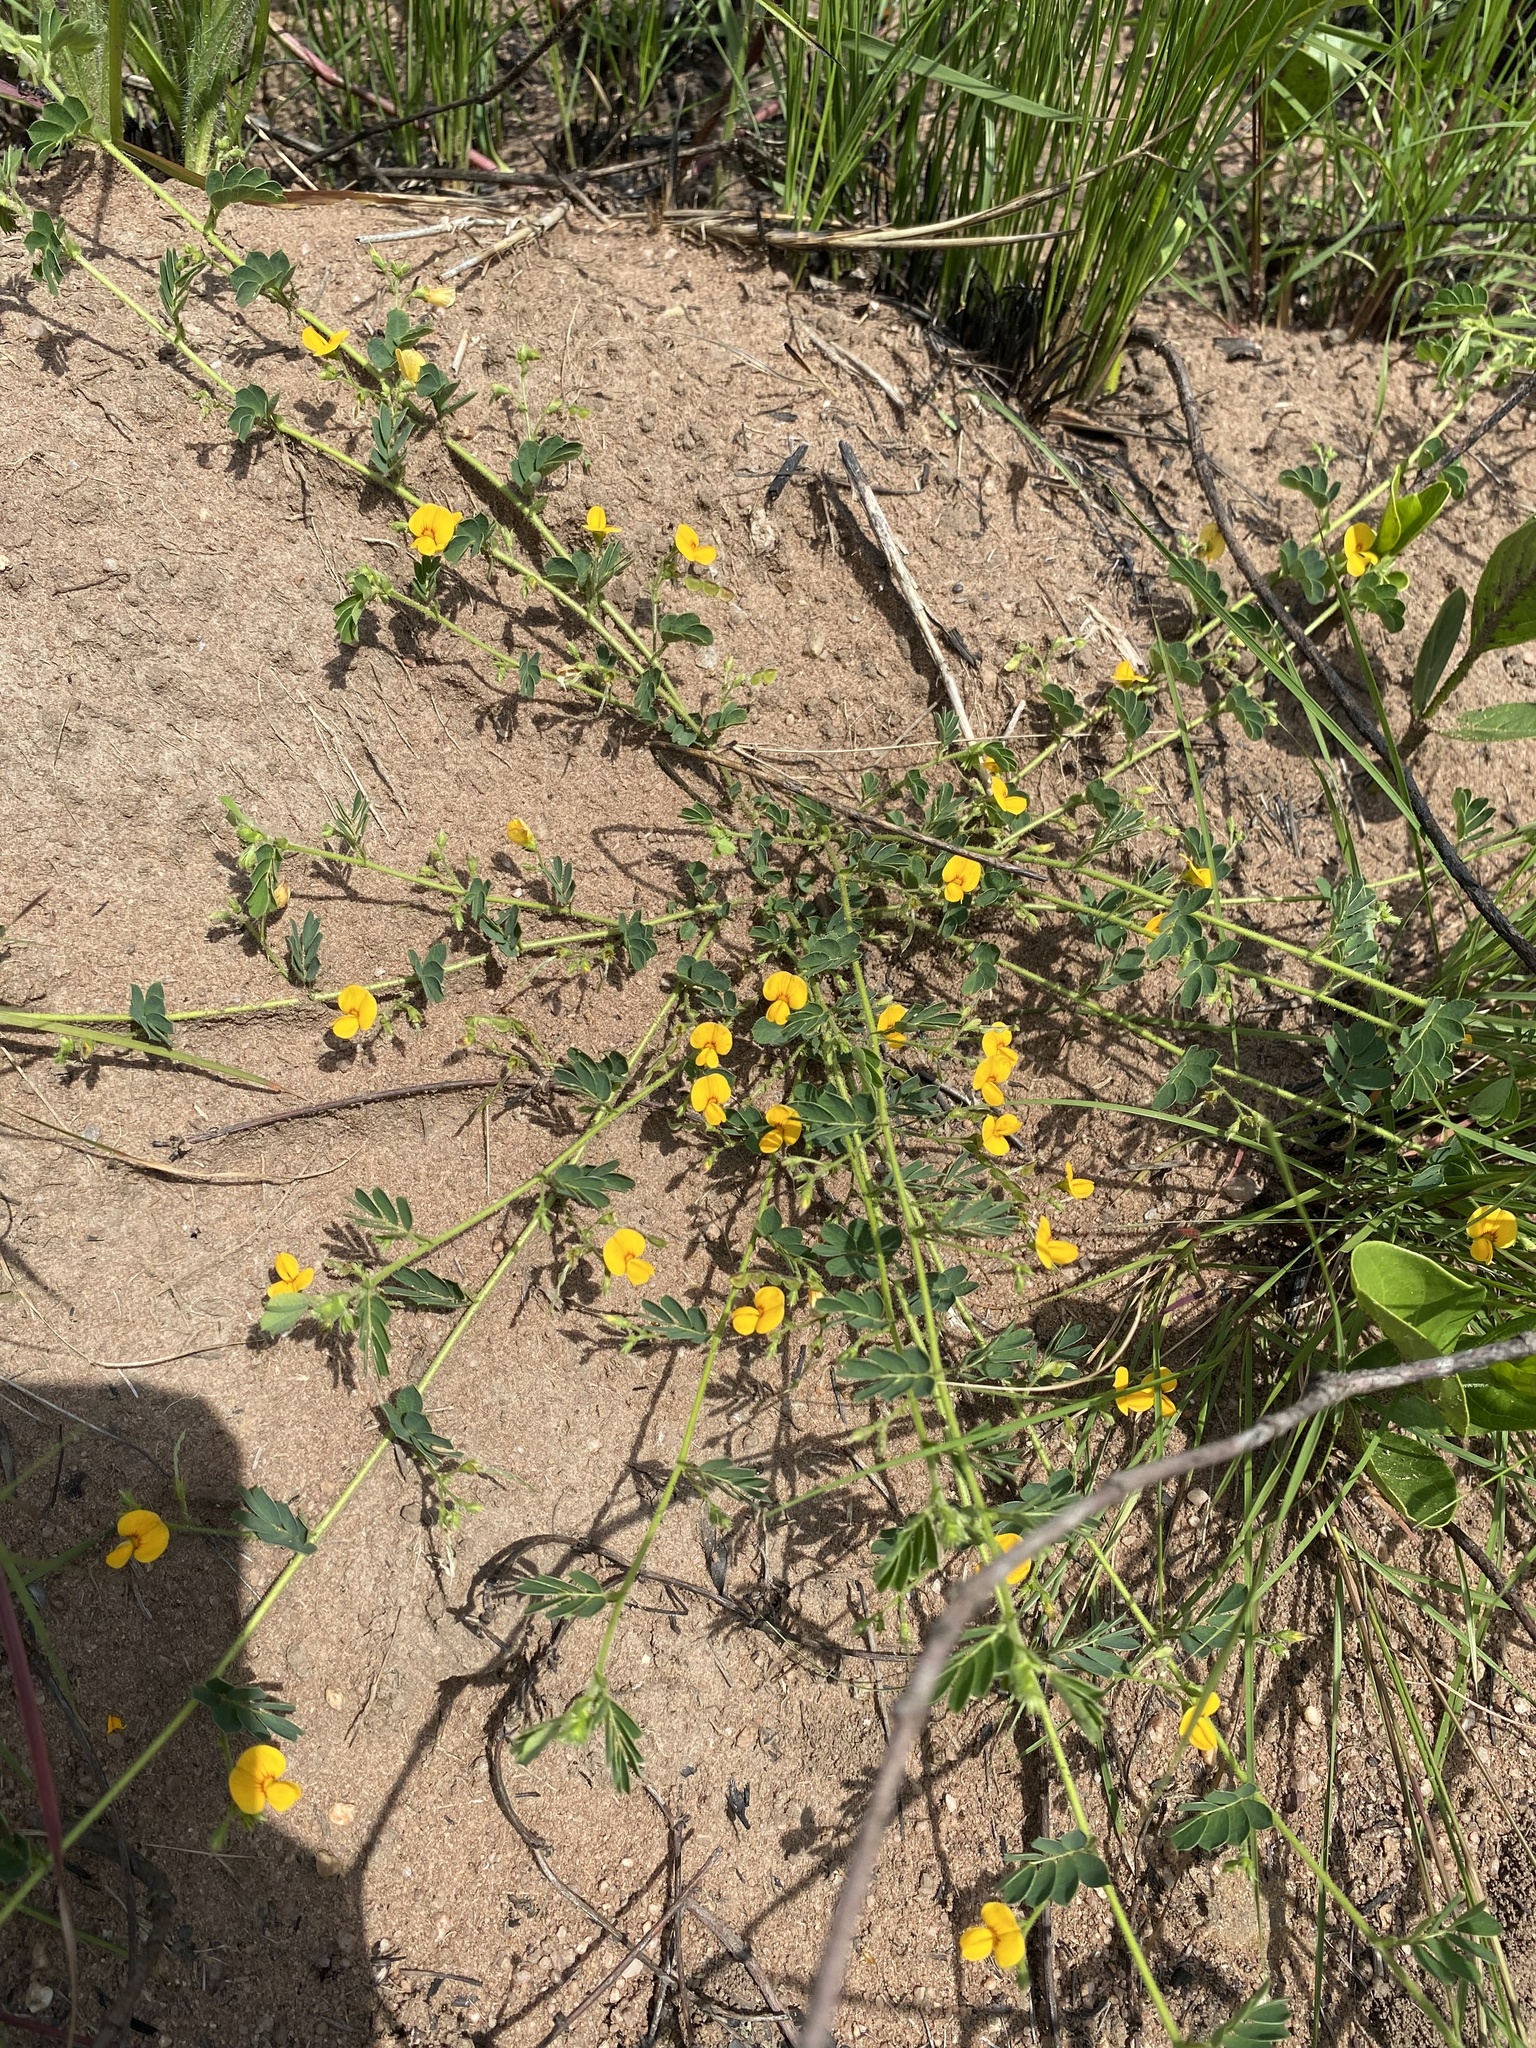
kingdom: Plantae
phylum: Tracheophyta
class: Magnoliopsida
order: Fabales
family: Fabaceae
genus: Aeschynomene
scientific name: Aeschynomene brevifolia
